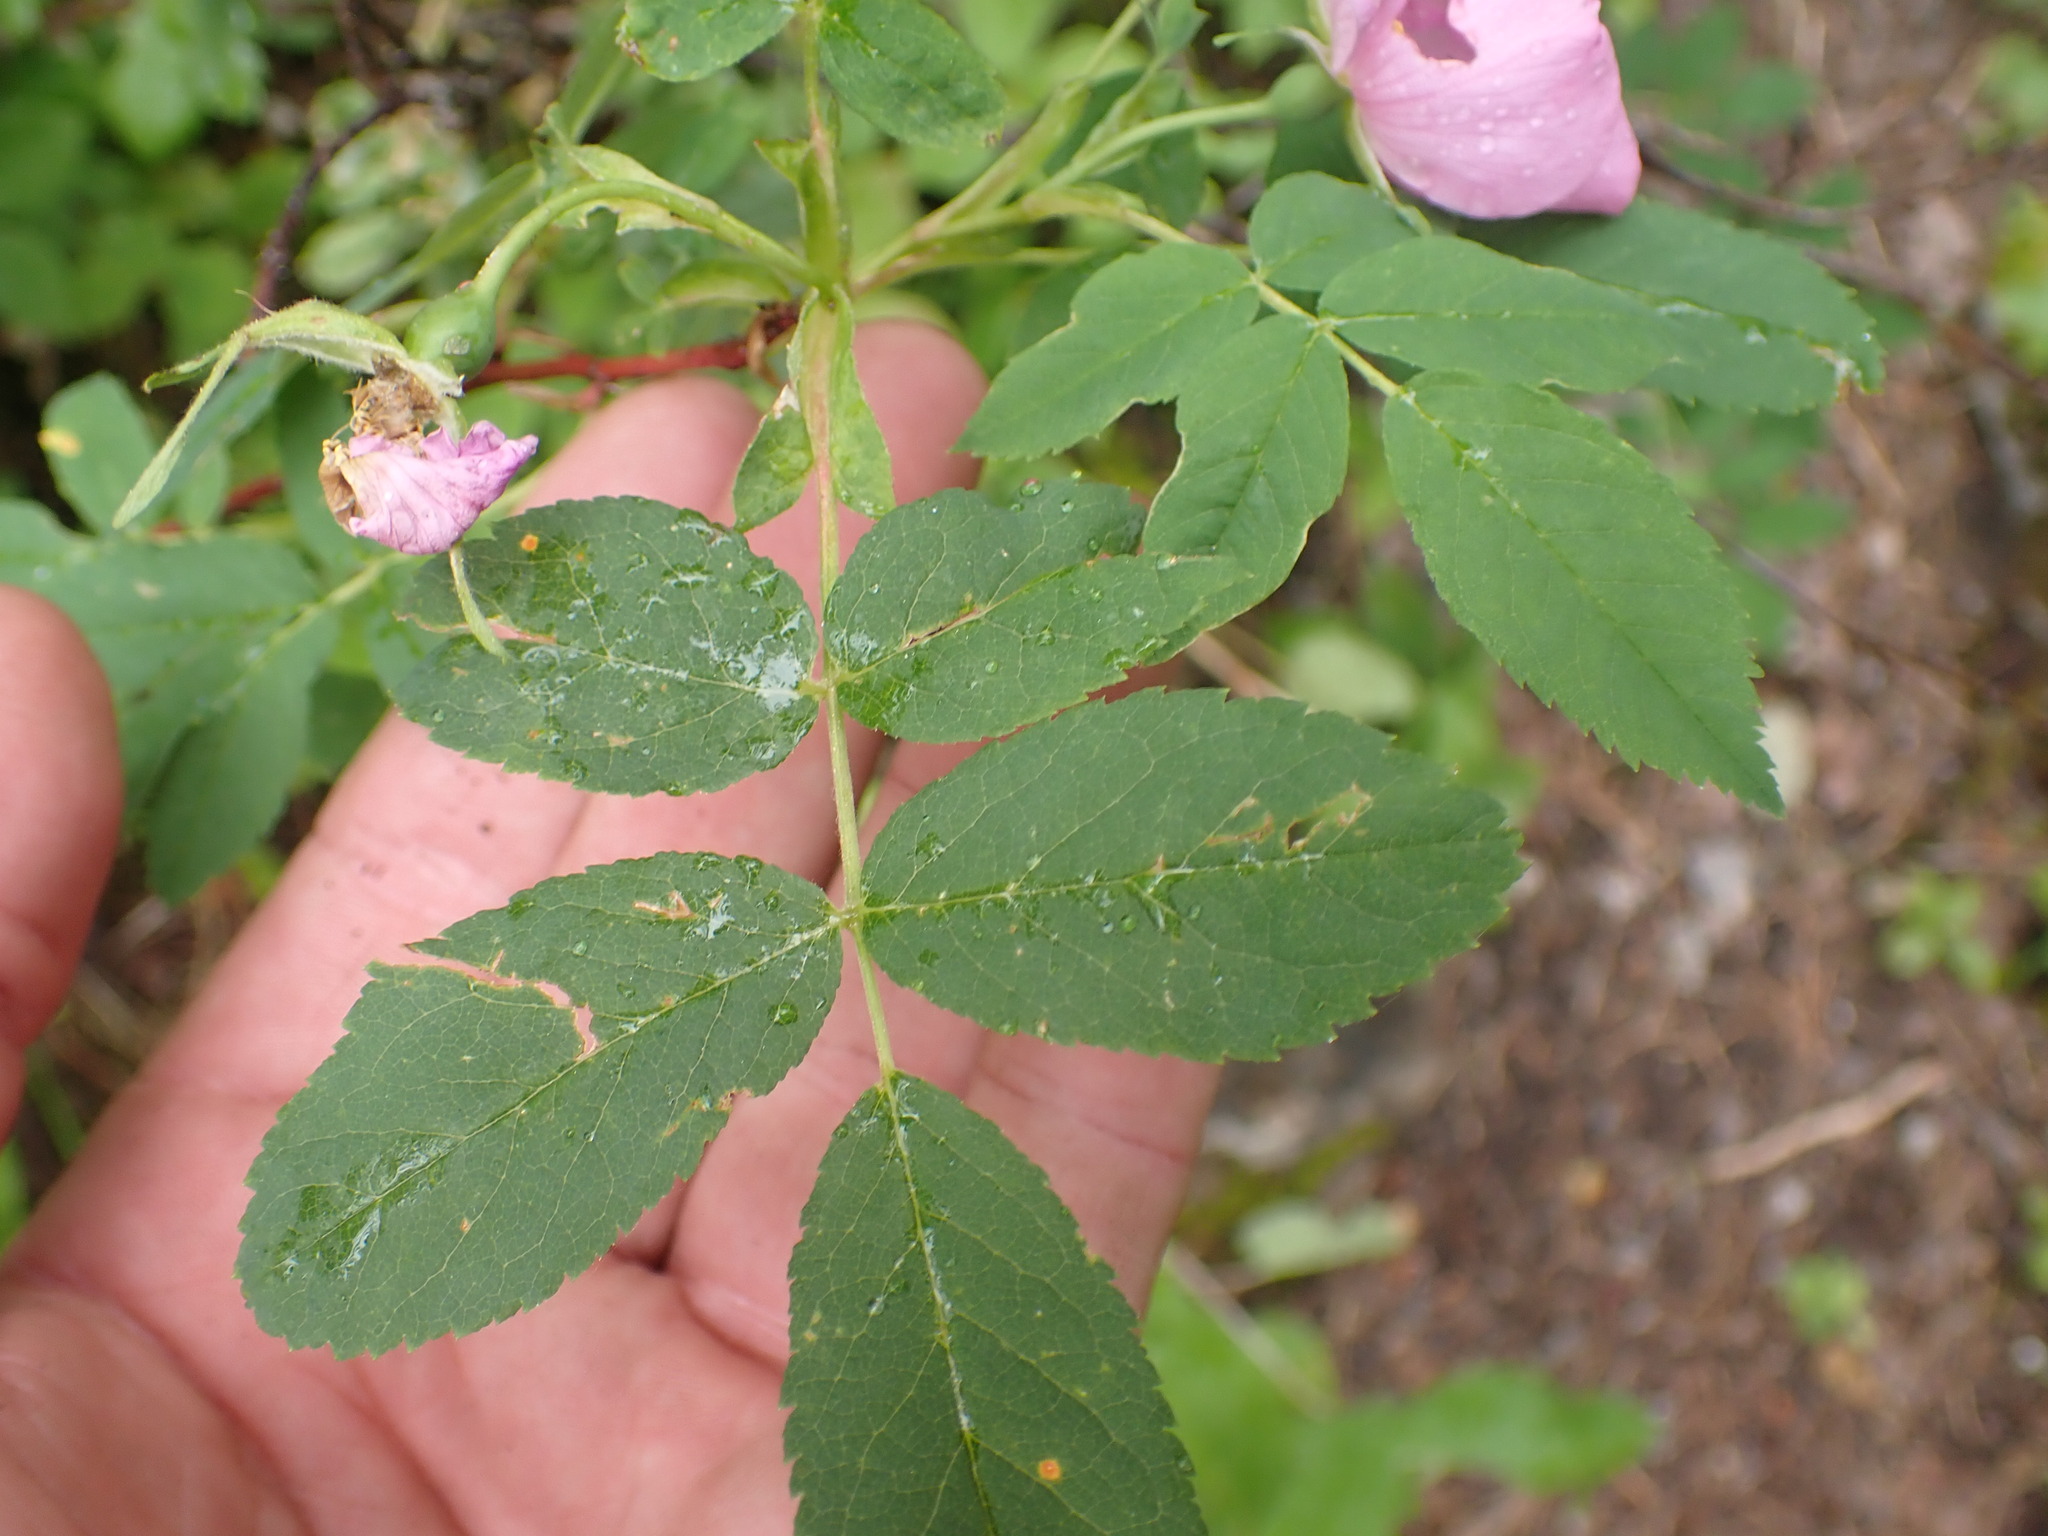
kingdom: Plantae
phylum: Tracheophyta
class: Magnoliopsida
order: Rosales
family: Rosaceae
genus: Rosa
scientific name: Rosa acicularis
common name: Prickly rose
